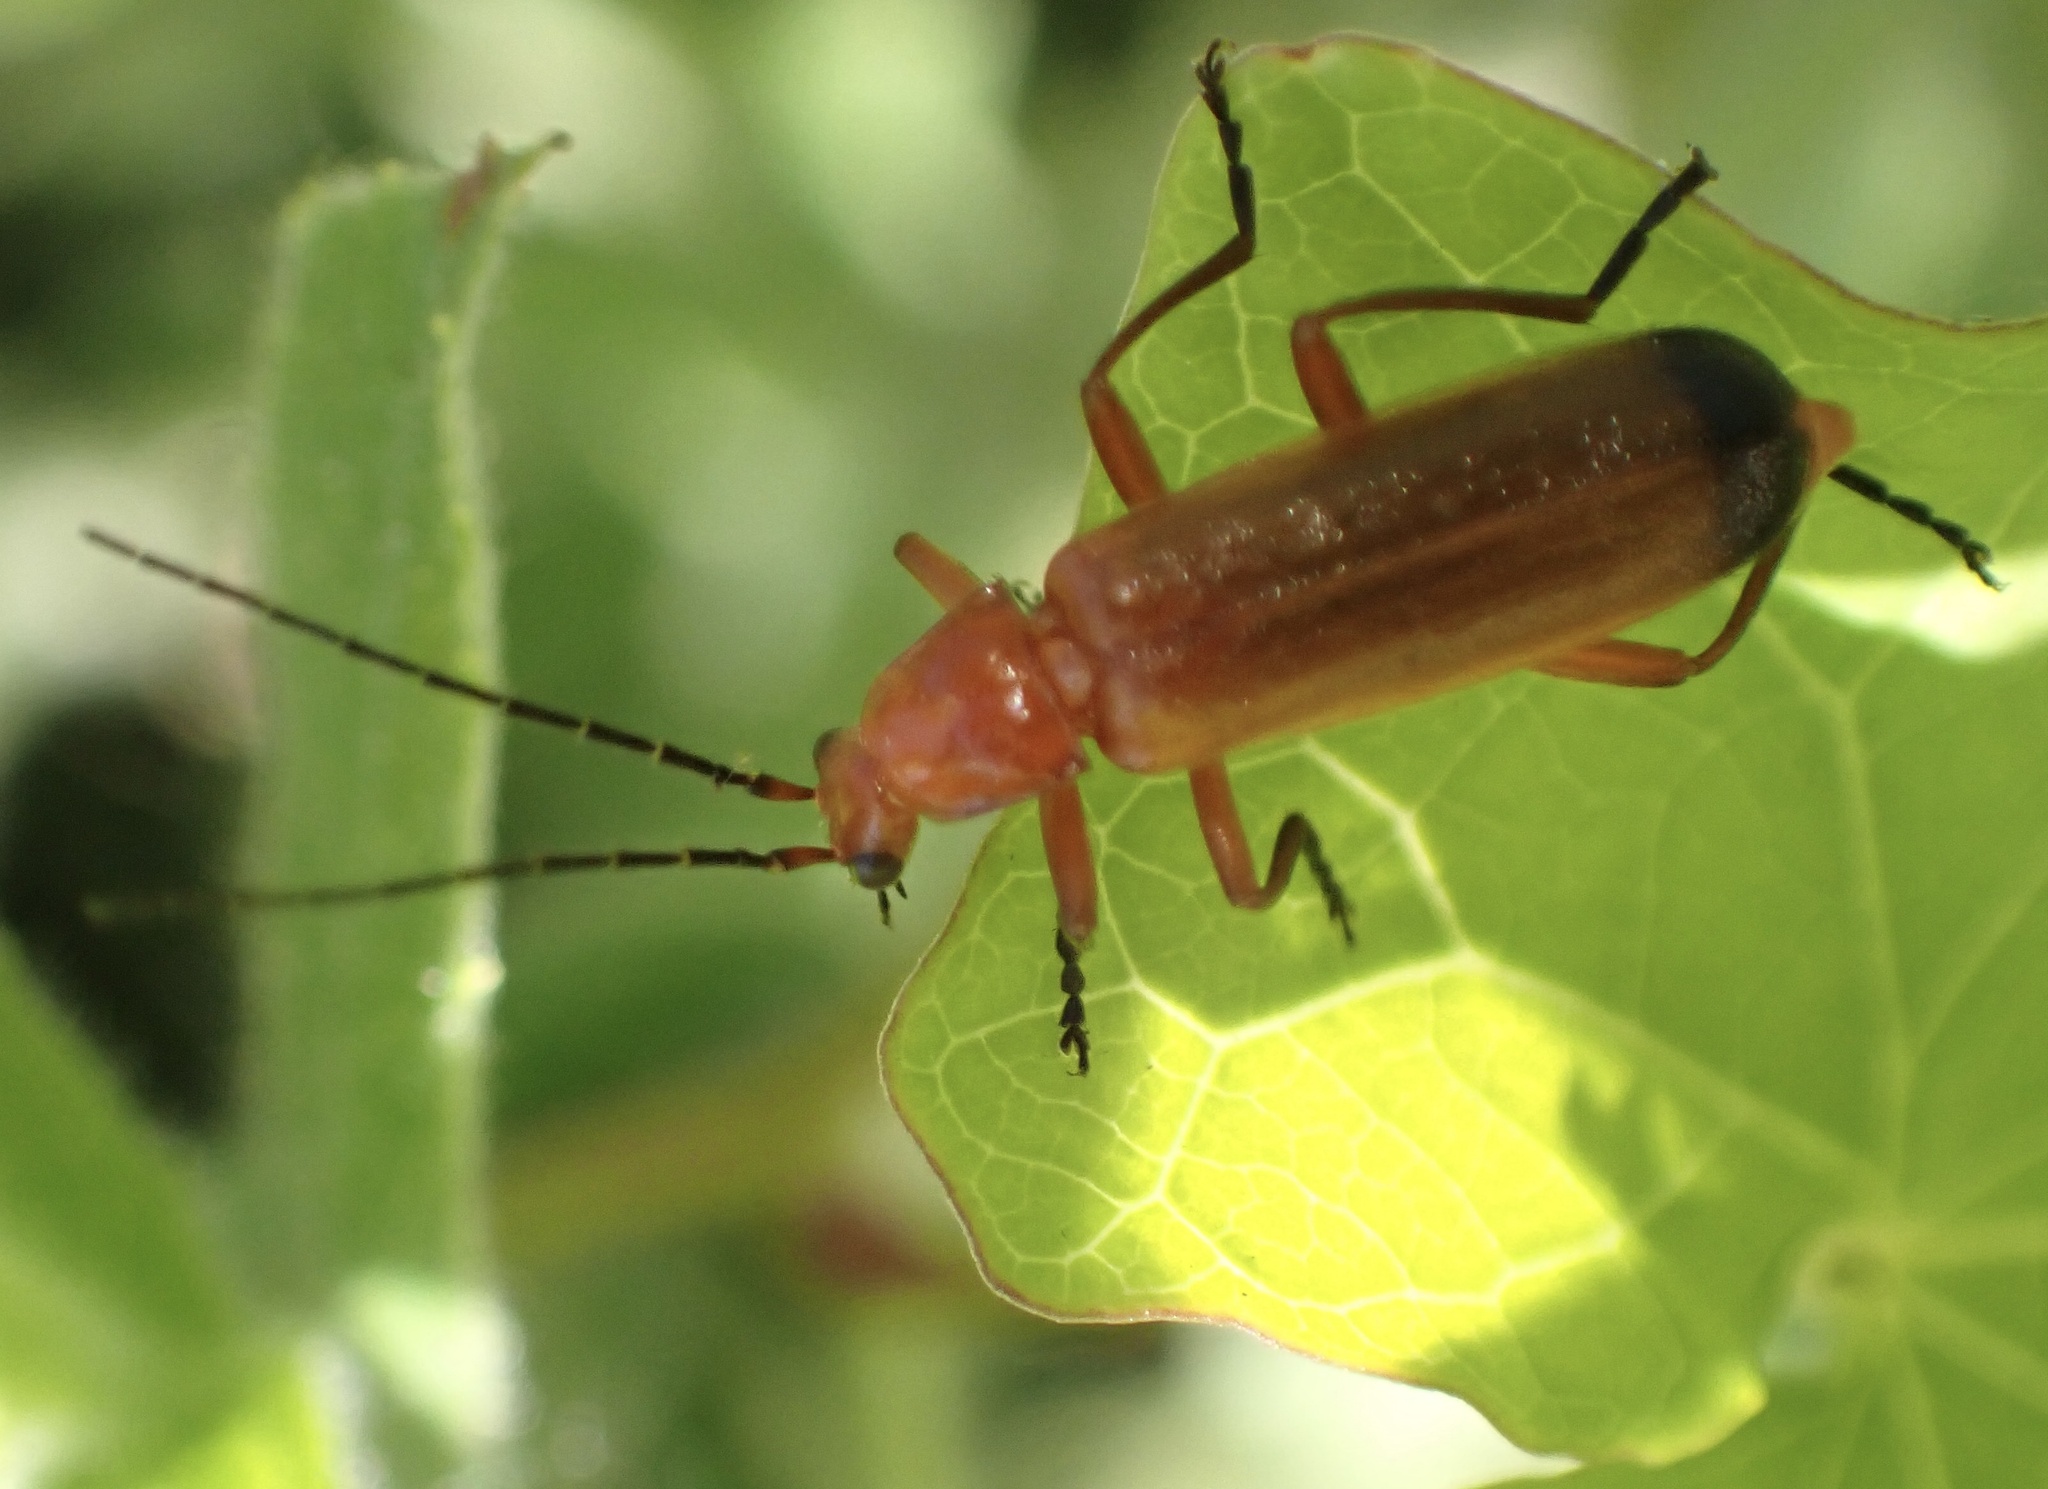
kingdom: Animalia
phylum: Arthropoda
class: Insecta
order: Coleoptera
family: Cantharidae
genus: Rhagonycha
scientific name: Rhagonycha fulva
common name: Common red soldier beetle
